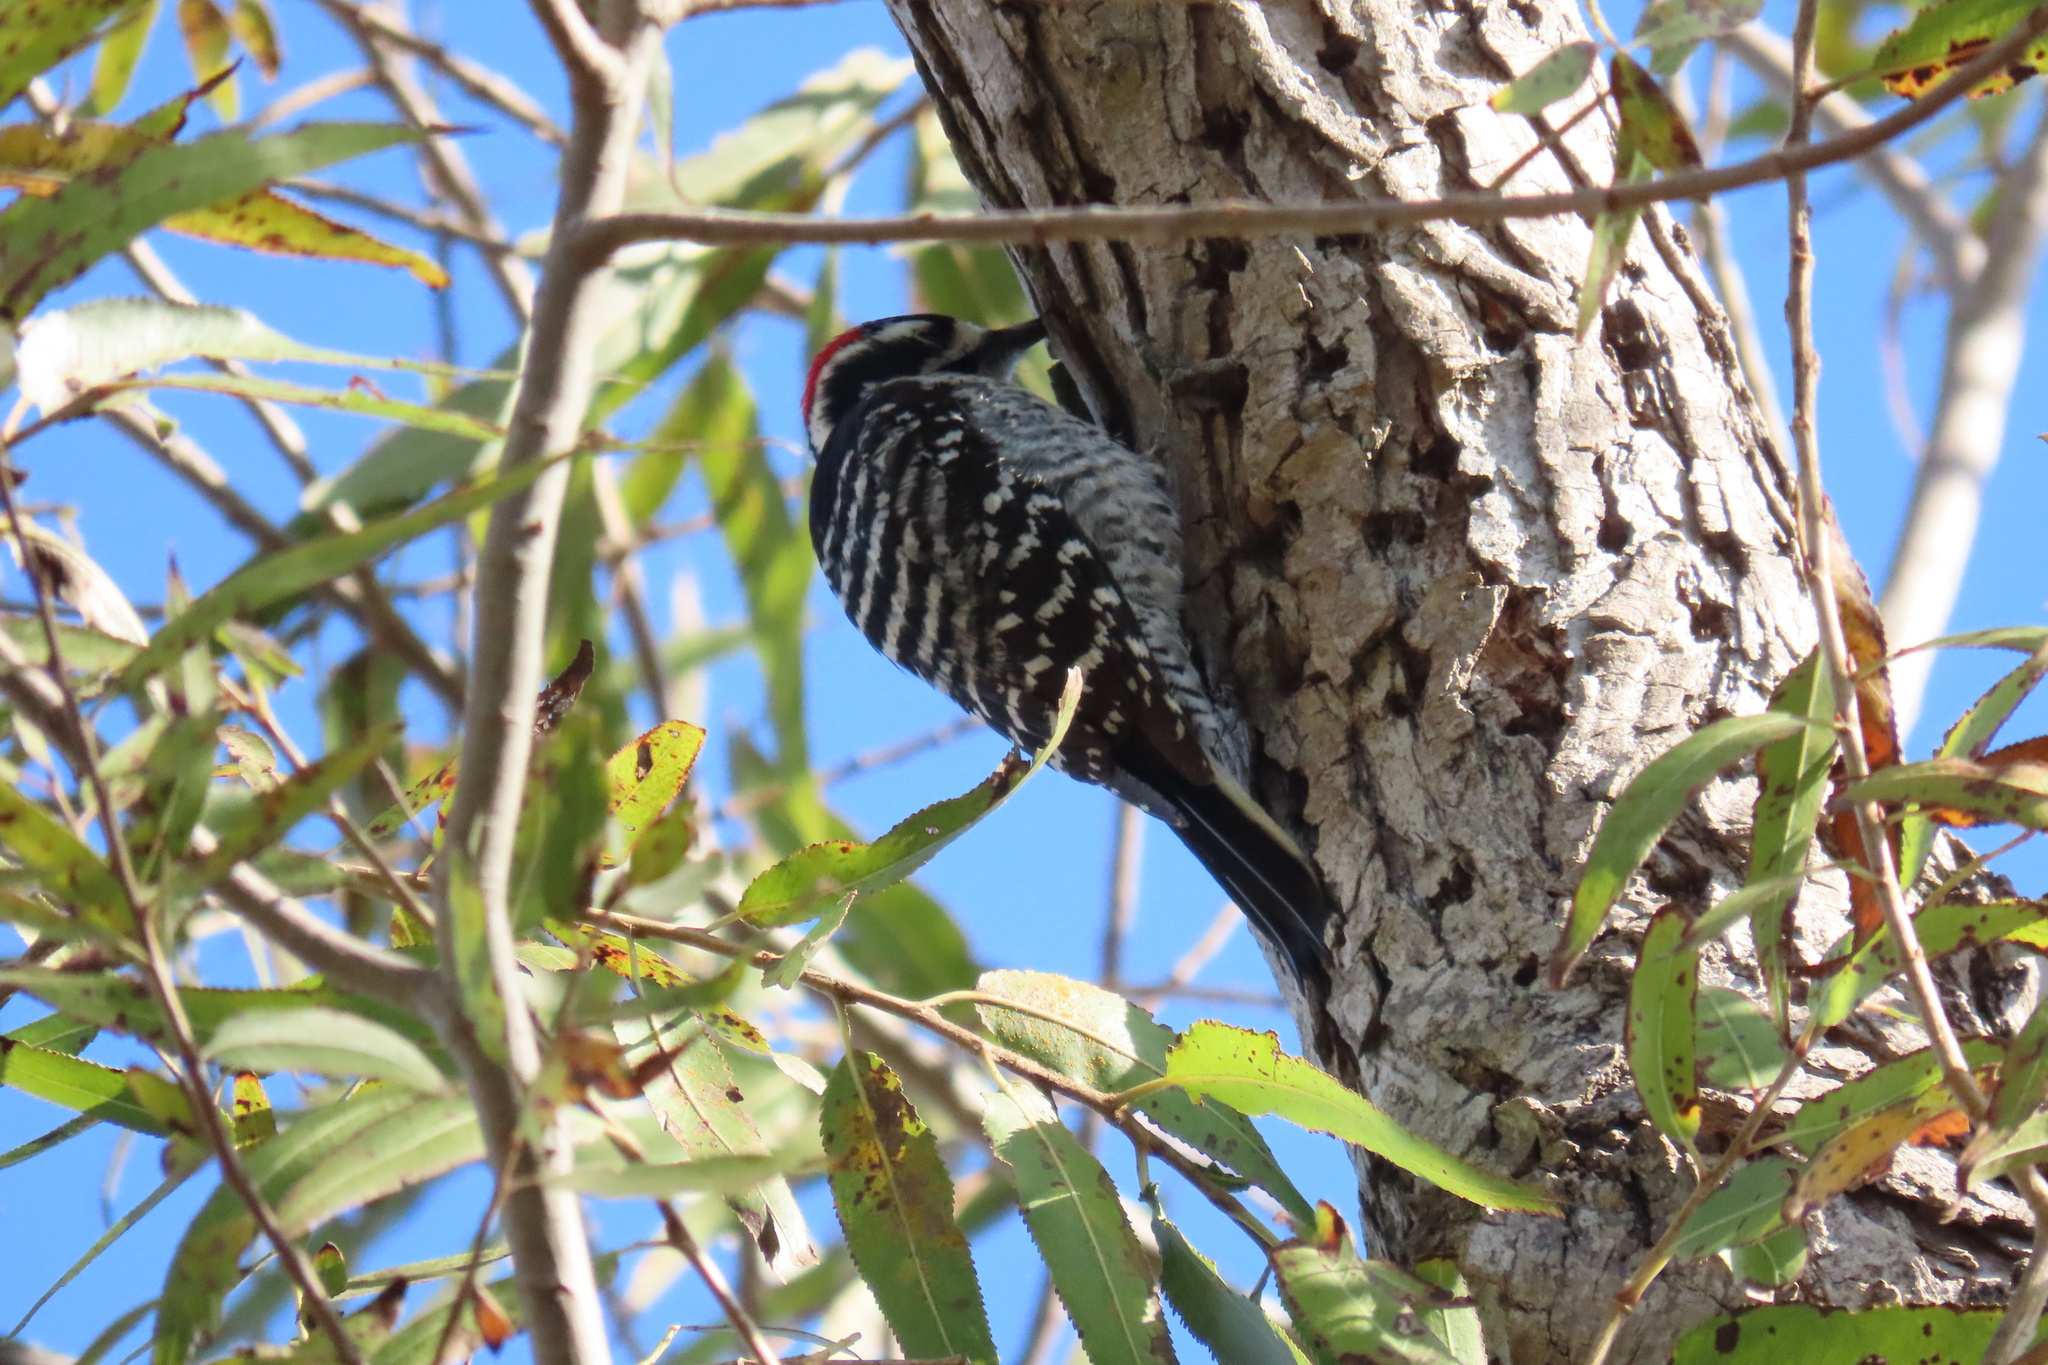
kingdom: Animalia
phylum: Chordata
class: Aves
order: Piciformes
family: Picidae
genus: Dryobates
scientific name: Dryobates nuttallii
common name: Nuttall's woodpecker
